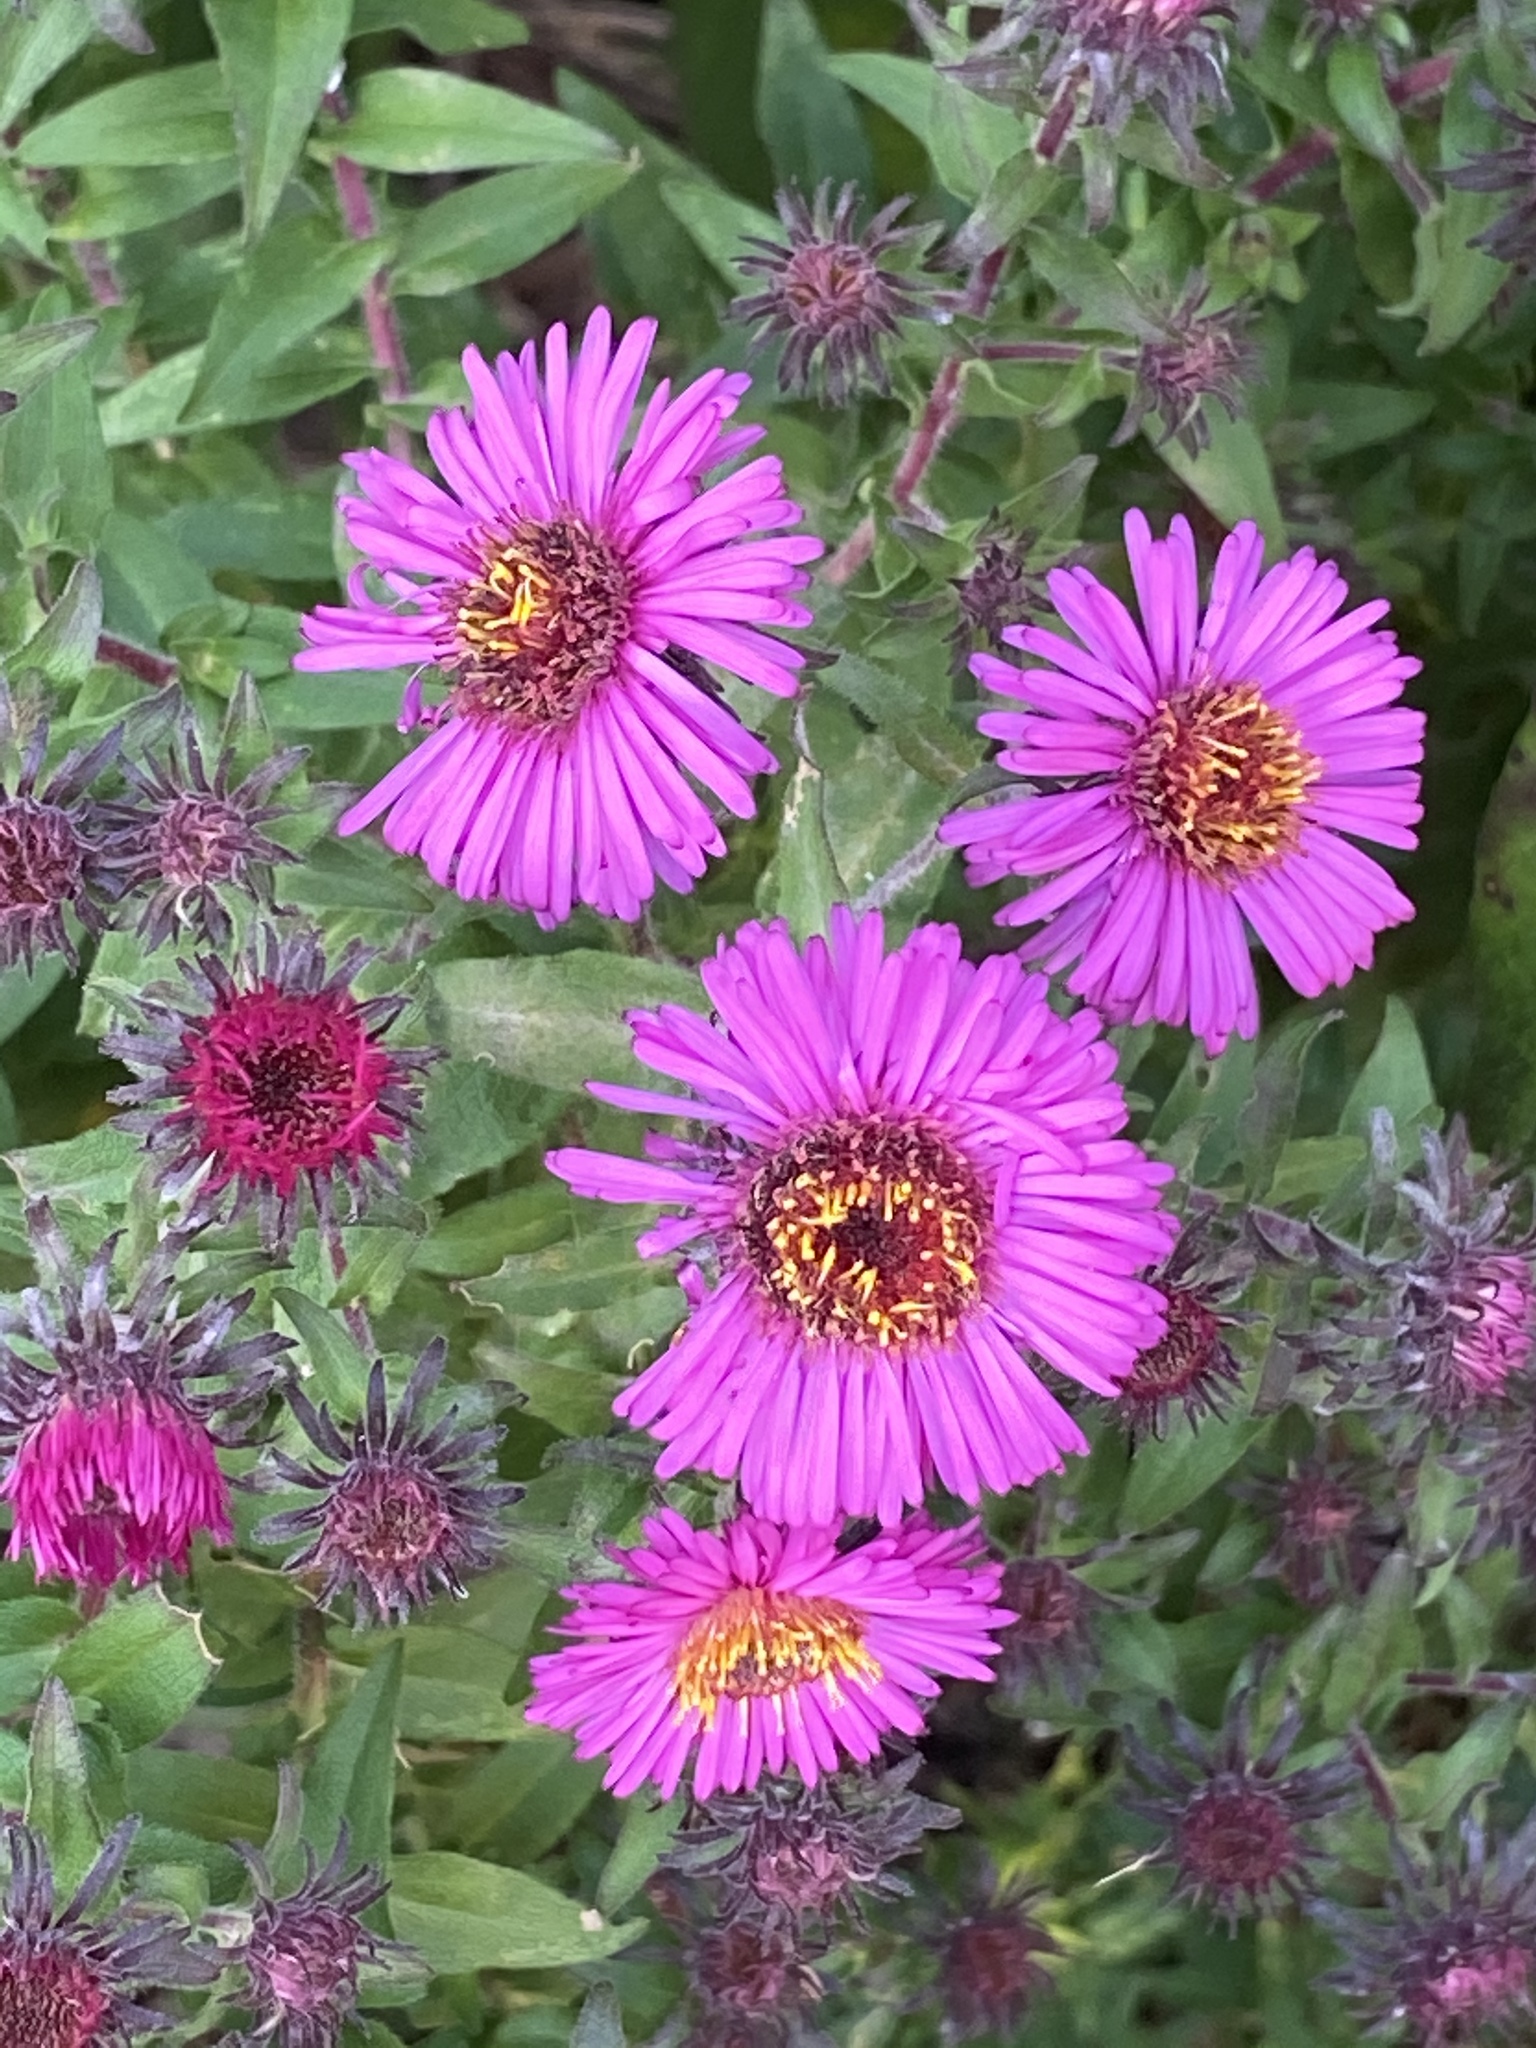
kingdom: Plantae
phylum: Tracheophyta
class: Magnoliopsida
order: Asterales
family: Asteraceae
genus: Symphyotrichum
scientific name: Symphyotrichum novae-angliae
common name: Michaelmas daisy
